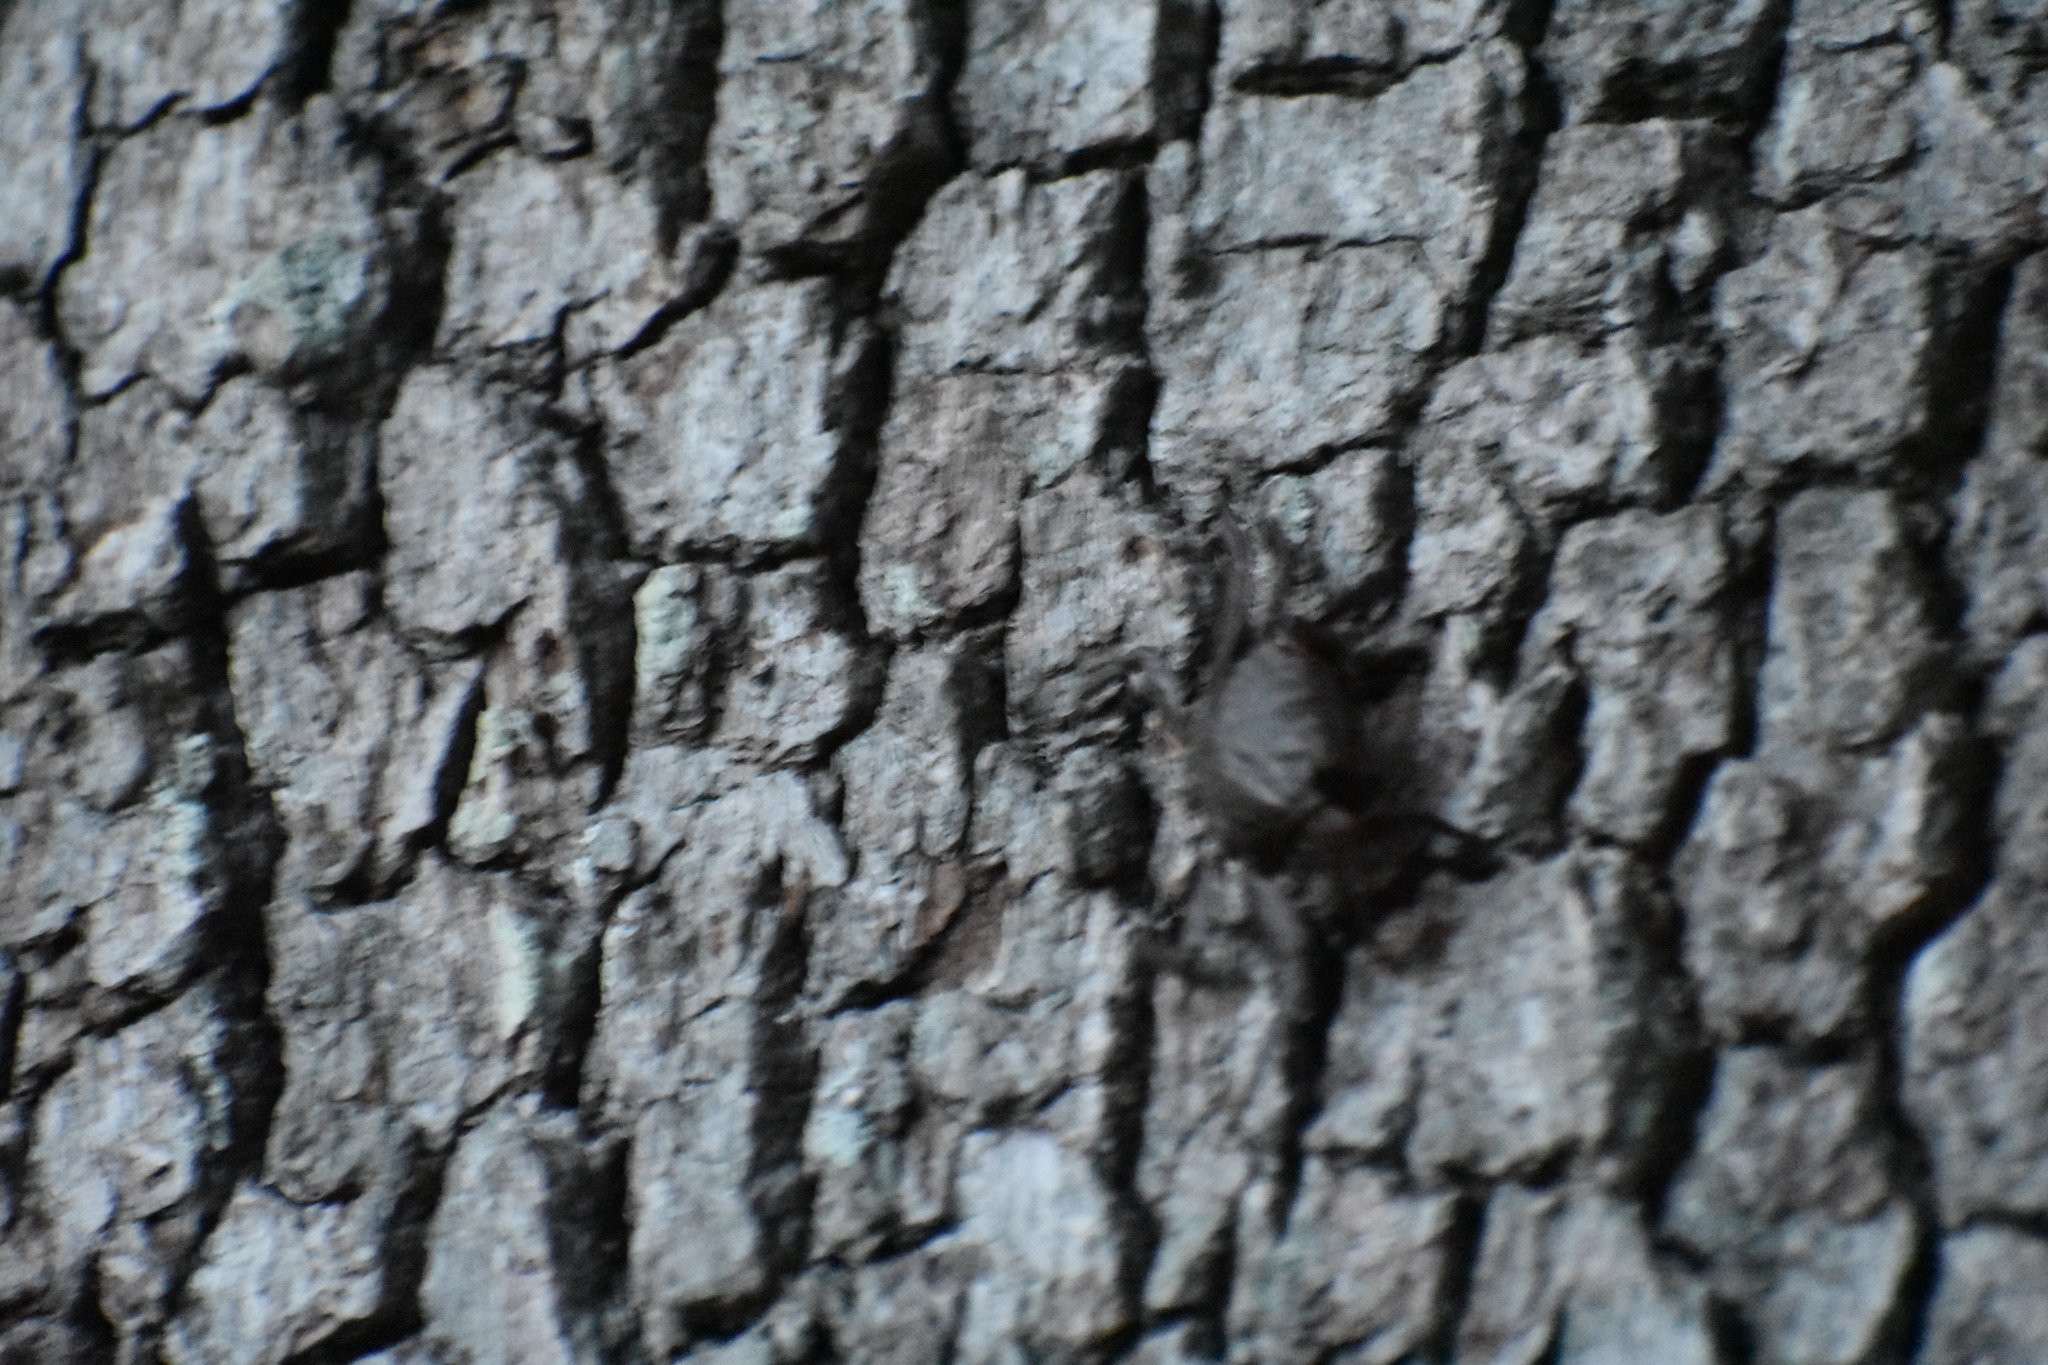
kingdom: Animalia
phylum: Arthropoda
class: Malacostraca
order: Decapoda
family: Sesarmidae
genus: Armases
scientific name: Armases cinereum
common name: Squareback marsh crab
